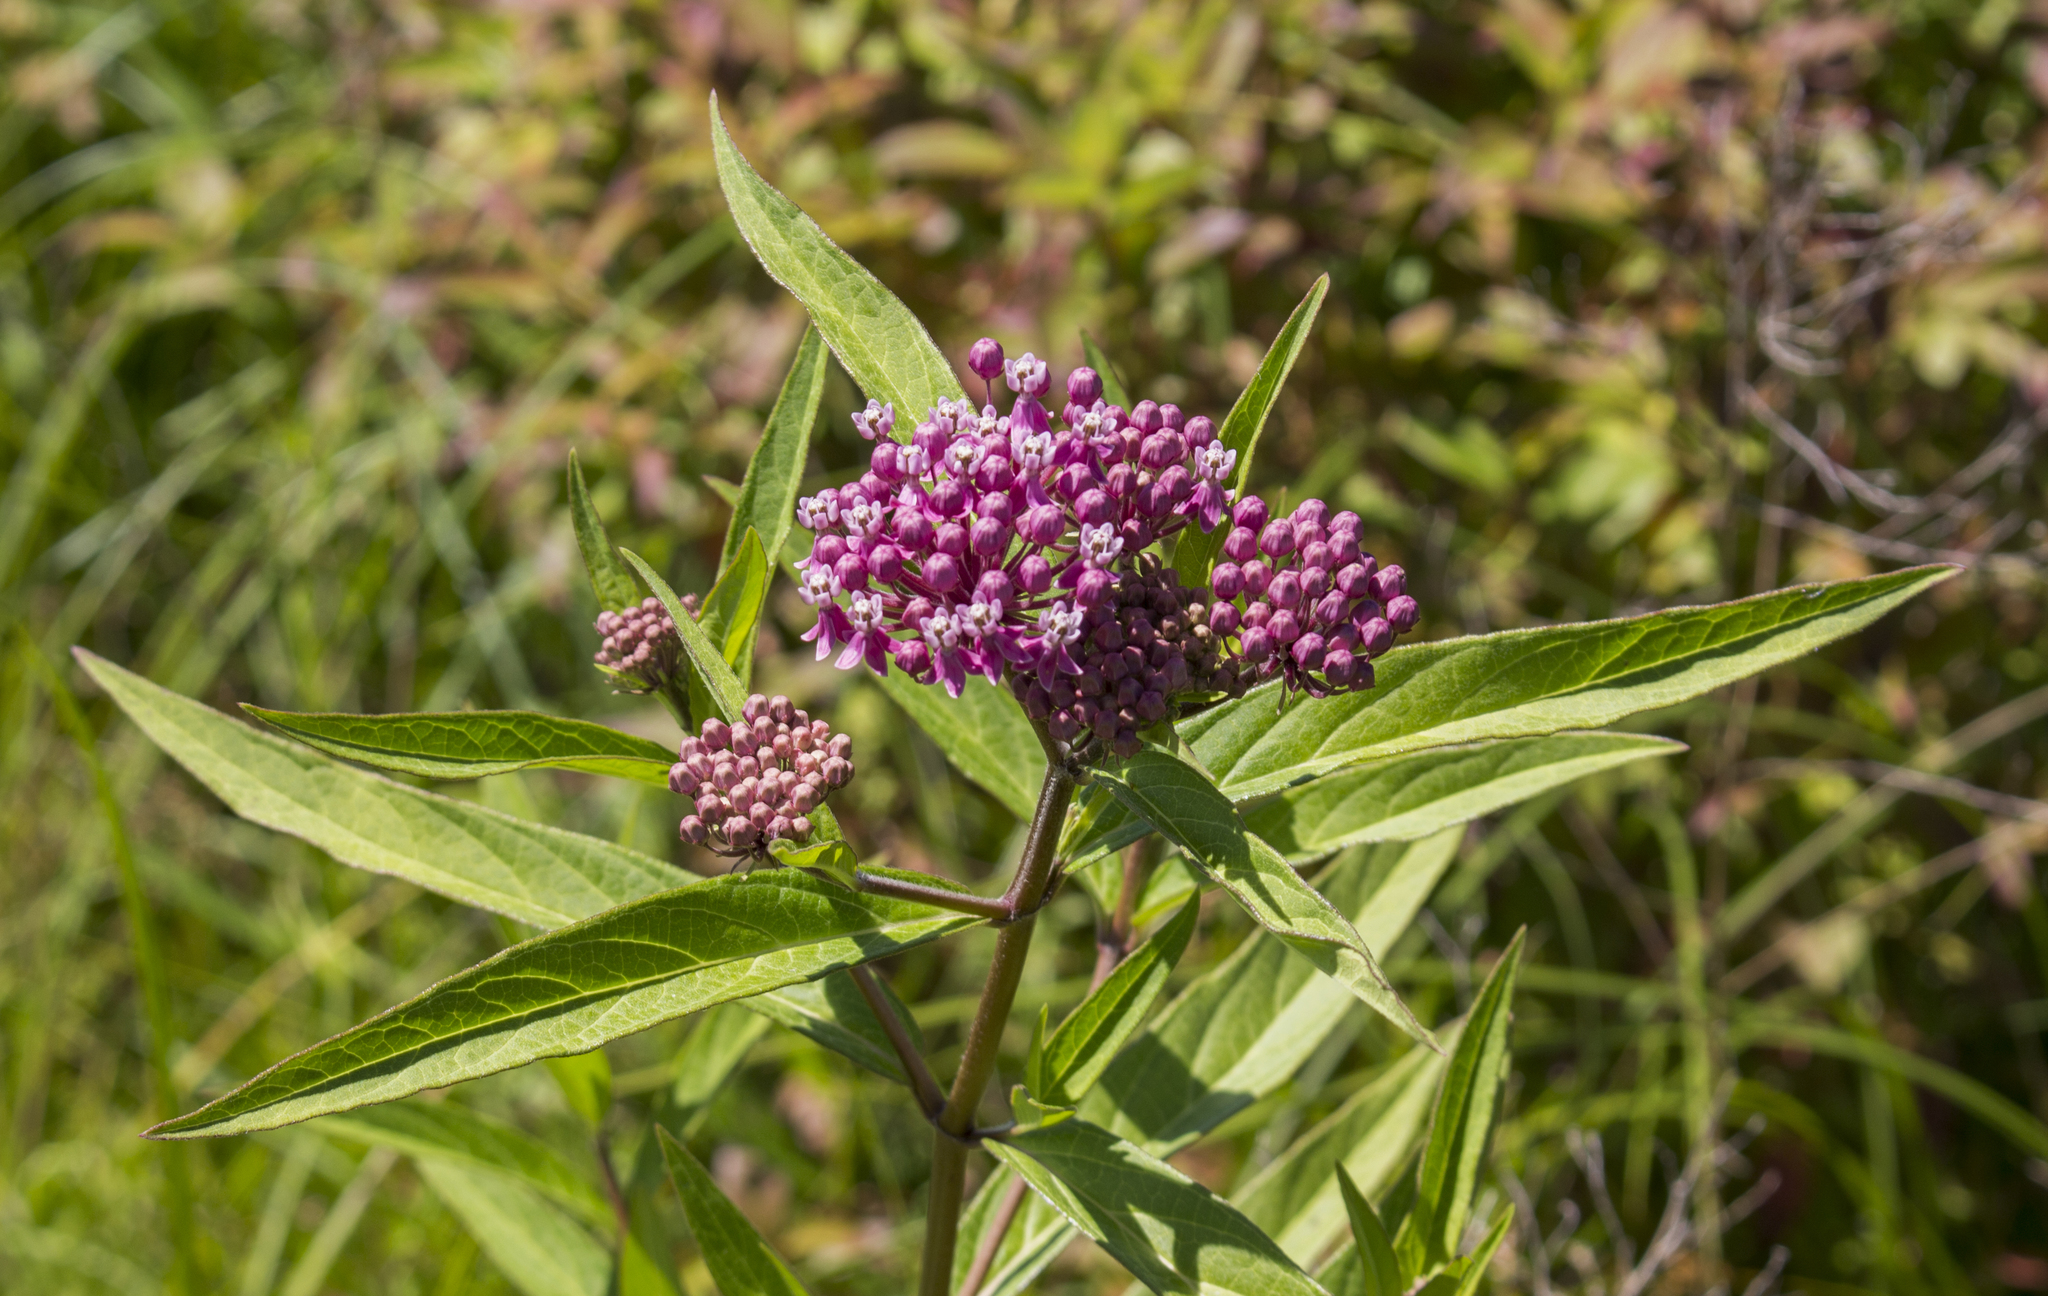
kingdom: Plantae
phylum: Tracheophyta
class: Magnoliopsida
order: Gentianales
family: Apocynaceae
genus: Asclepias
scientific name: Asclepias incarnata
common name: Swamp milkweed
